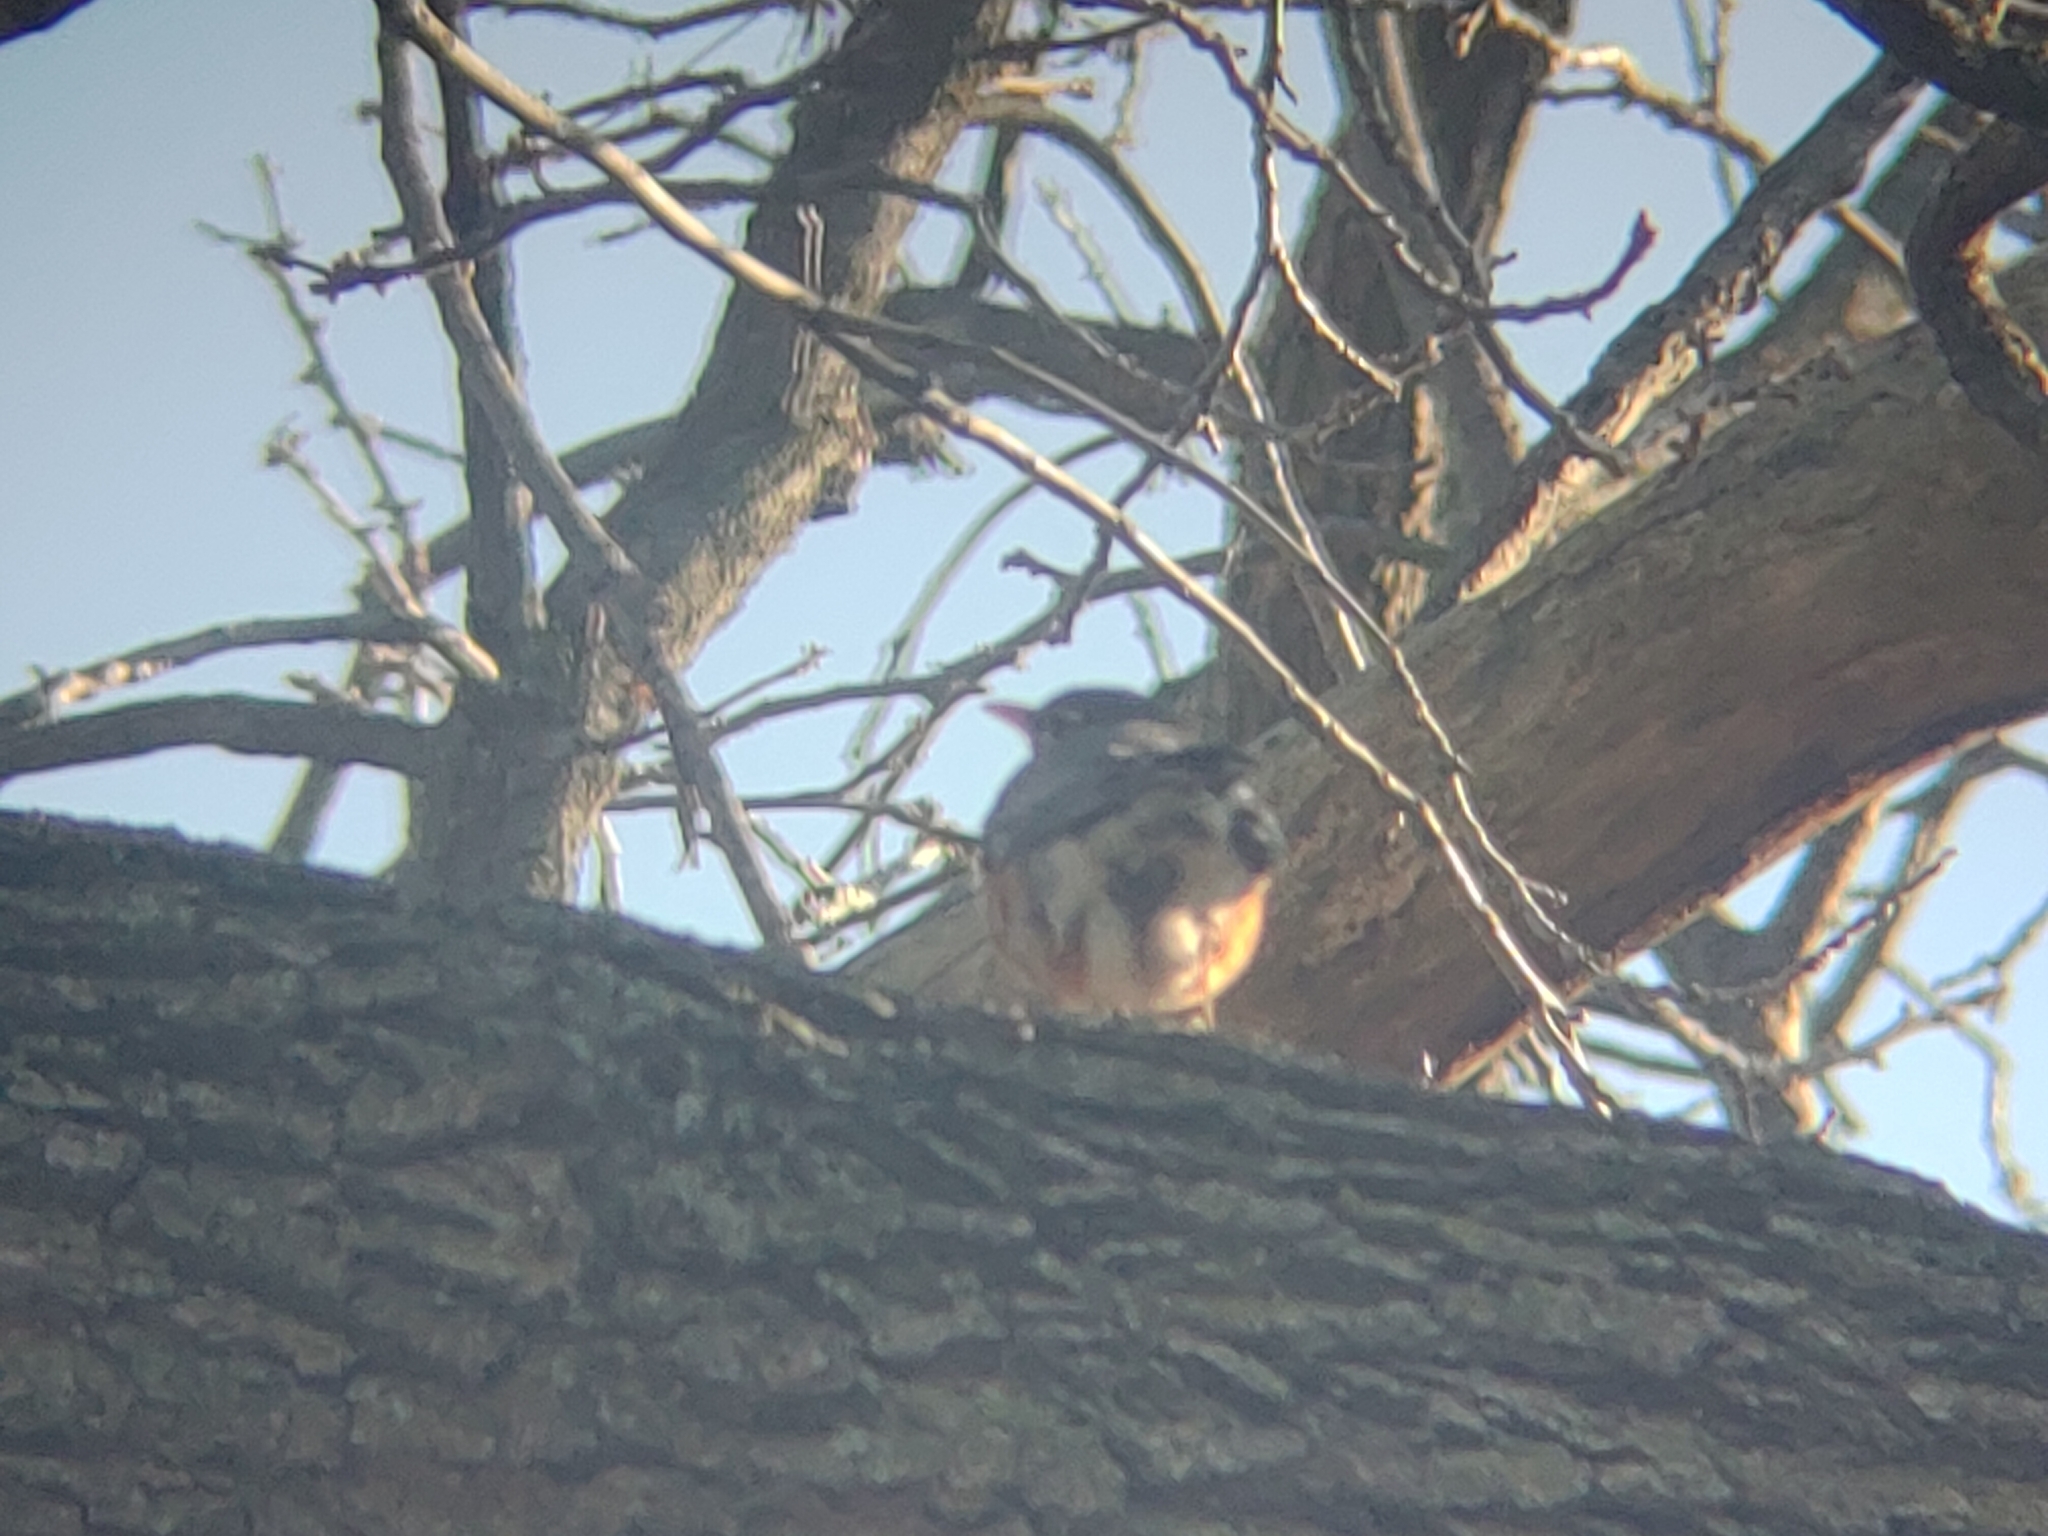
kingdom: Animalia
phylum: Chordata
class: Aves
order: Passeriformes
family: Turdidae
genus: Turdus
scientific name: Turdus migratorius
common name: American robin
